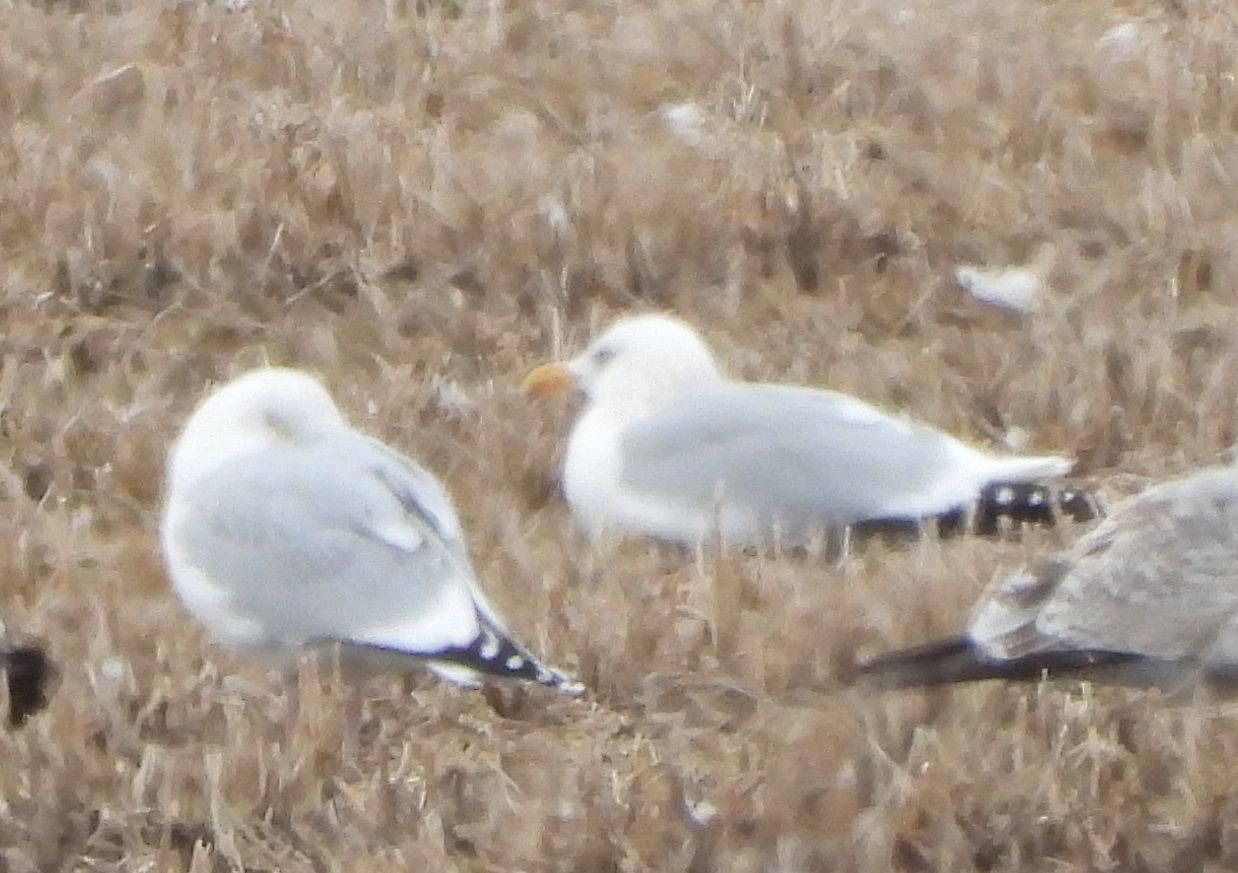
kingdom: Animalia
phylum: Chordata
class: Aves
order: Charadriiformes
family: Laridae
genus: Larus
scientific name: Larus argentatus
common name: Herring gull
